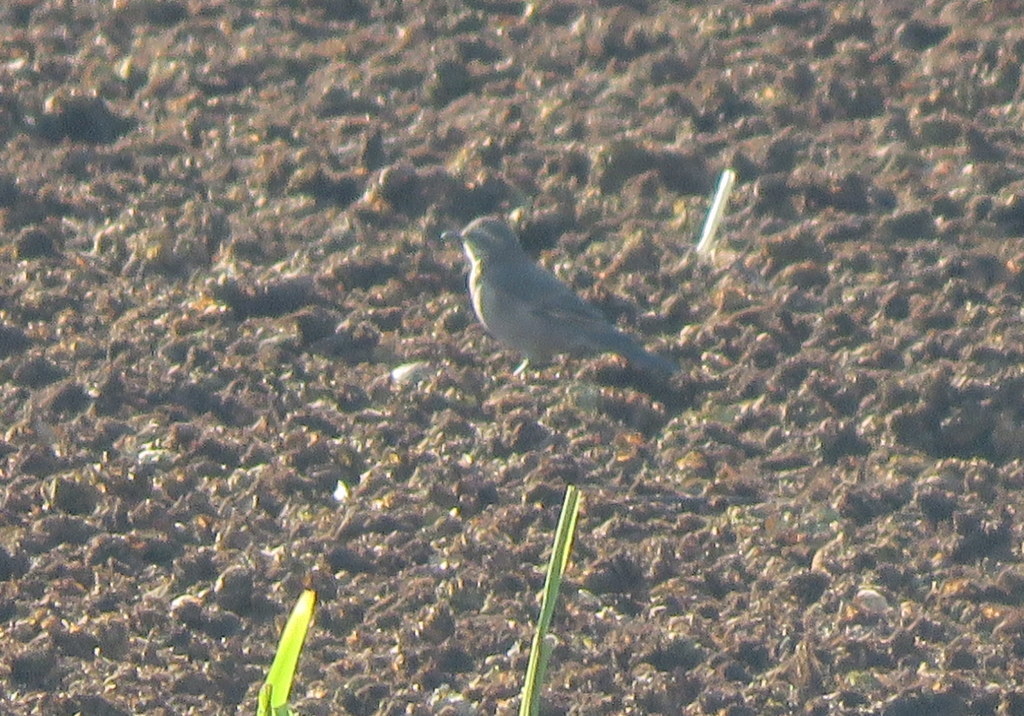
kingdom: Animalia
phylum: Chordata
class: Aves
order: Passeriformes
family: Furnariidae
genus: Cinclodes
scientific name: Cinclodes fuscus
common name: Buff-winged cinclodes
